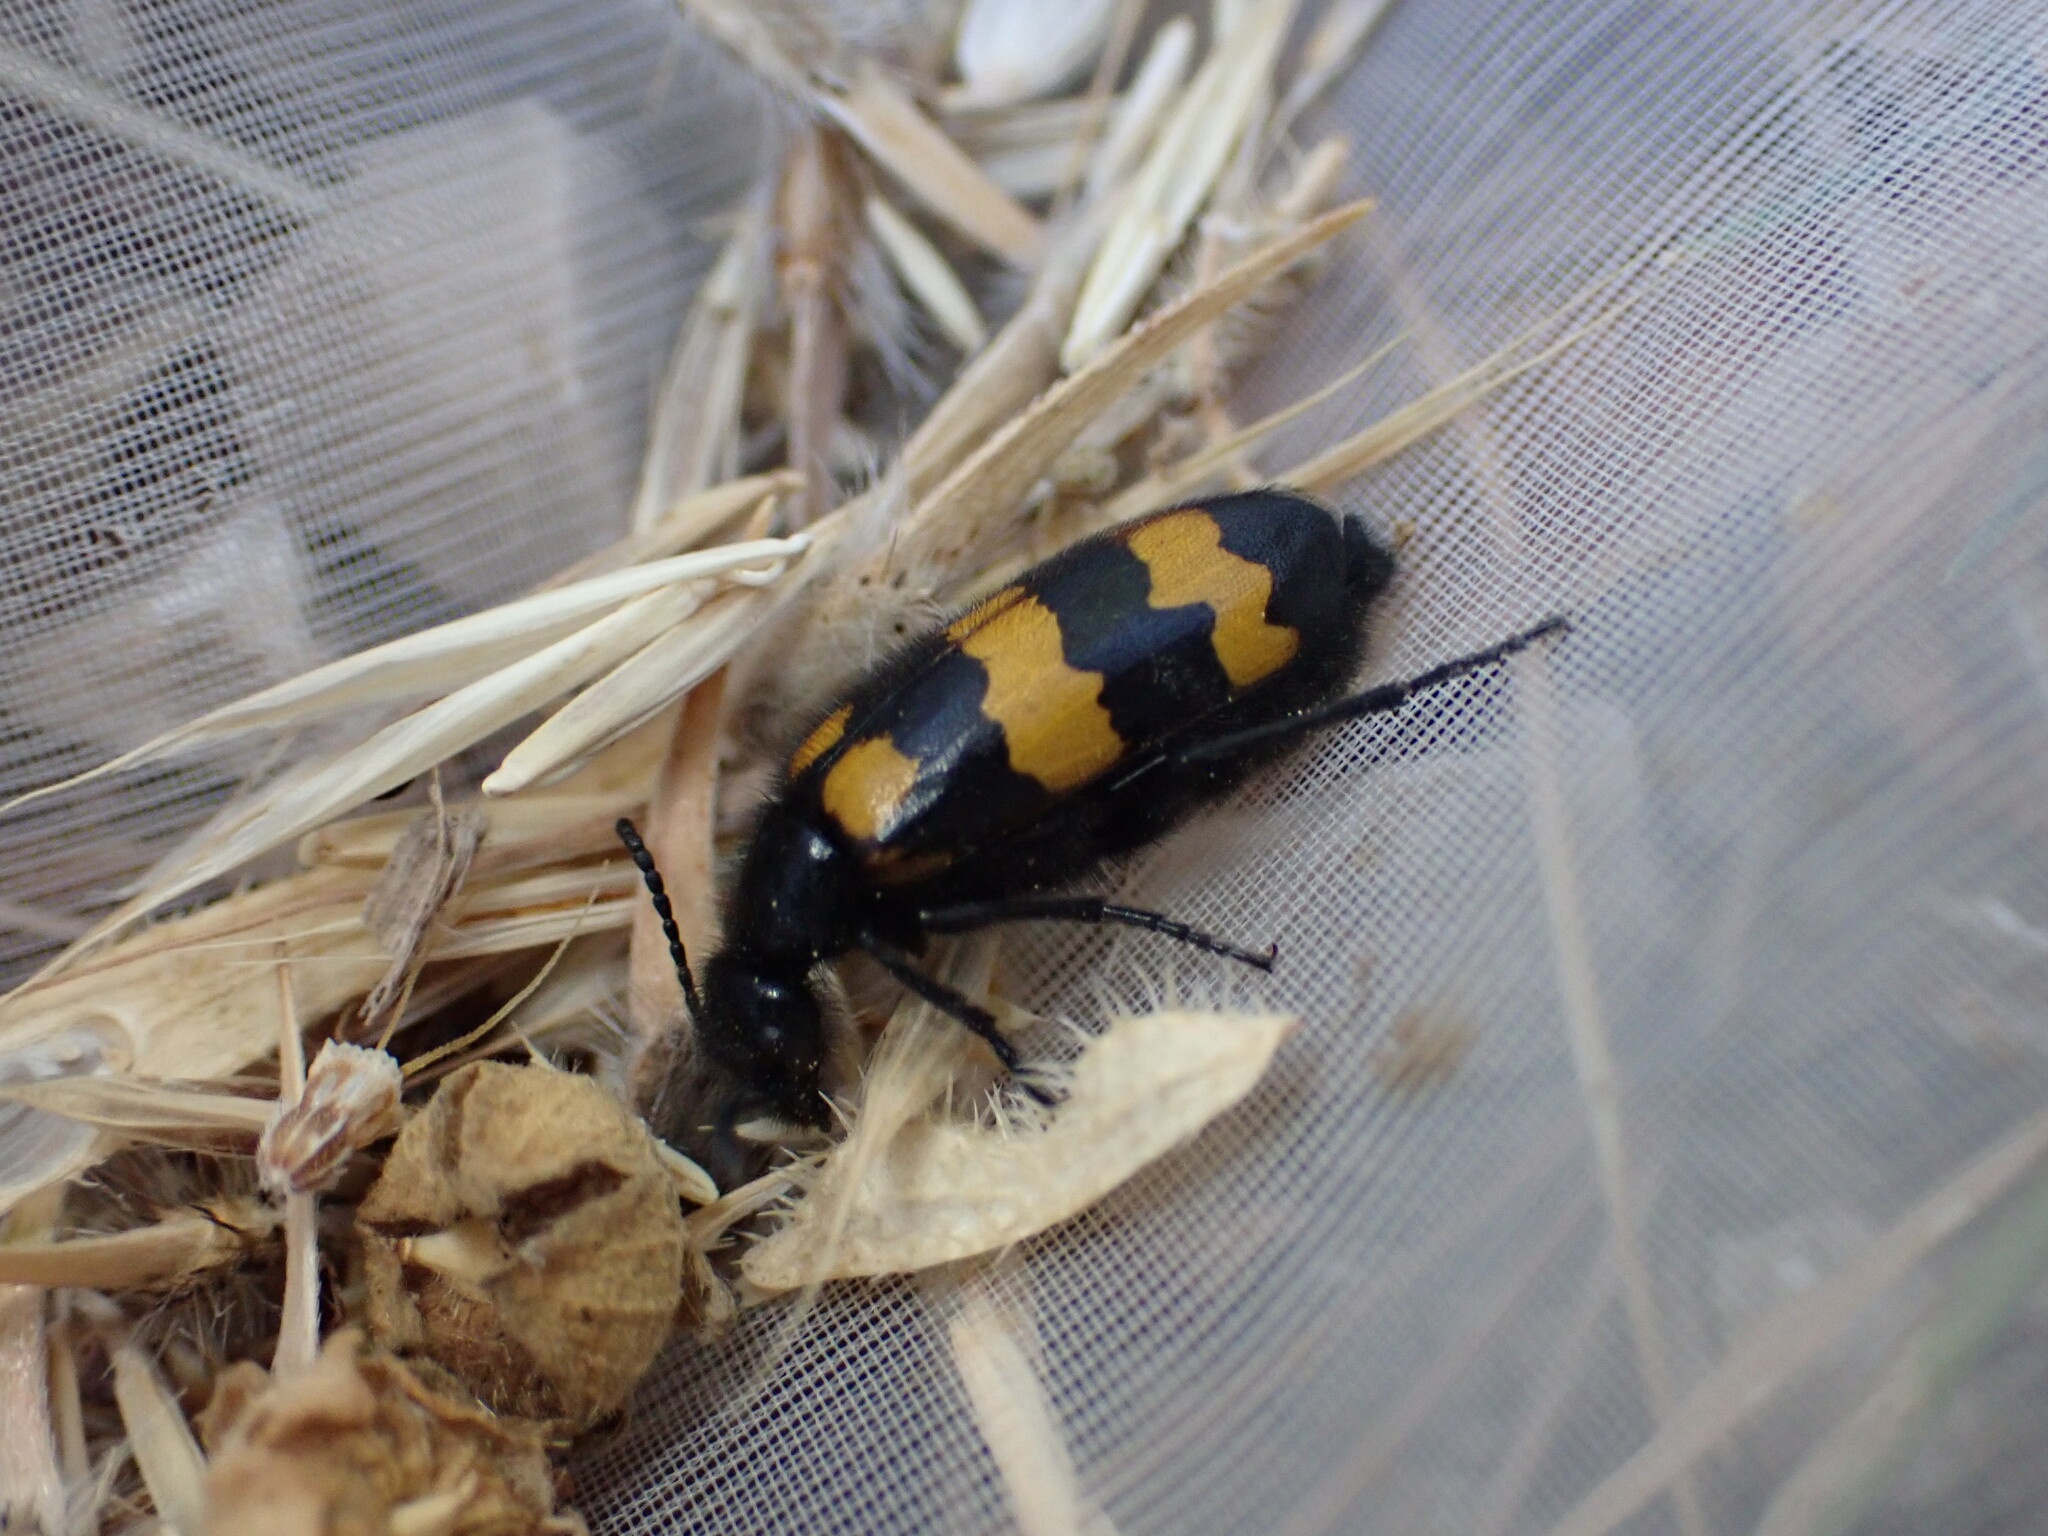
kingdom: Animalia
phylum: Arthropoda
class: Insecta
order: Coleoptera
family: Meloidae
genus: Mylabris
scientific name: Mylabris variabilis
